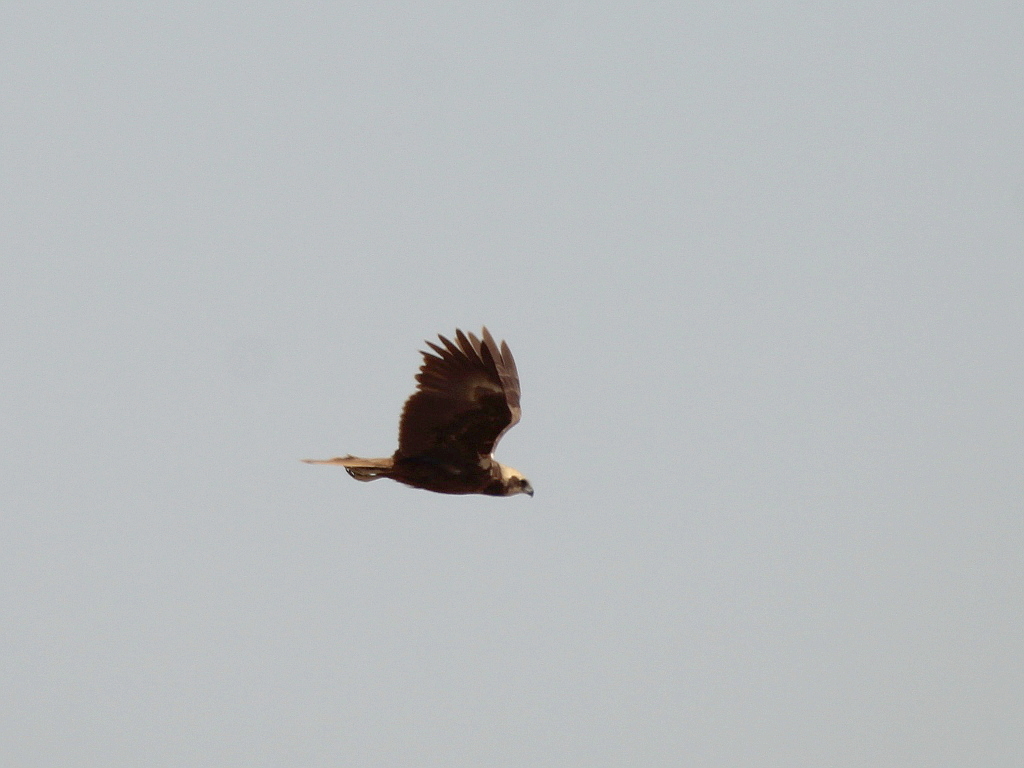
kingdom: Animalia
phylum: Chordata
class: Aves
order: Accipitriformes
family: Accipitridae
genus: Circus
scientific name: Circus aeruginosus
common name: Western marsh harrier
